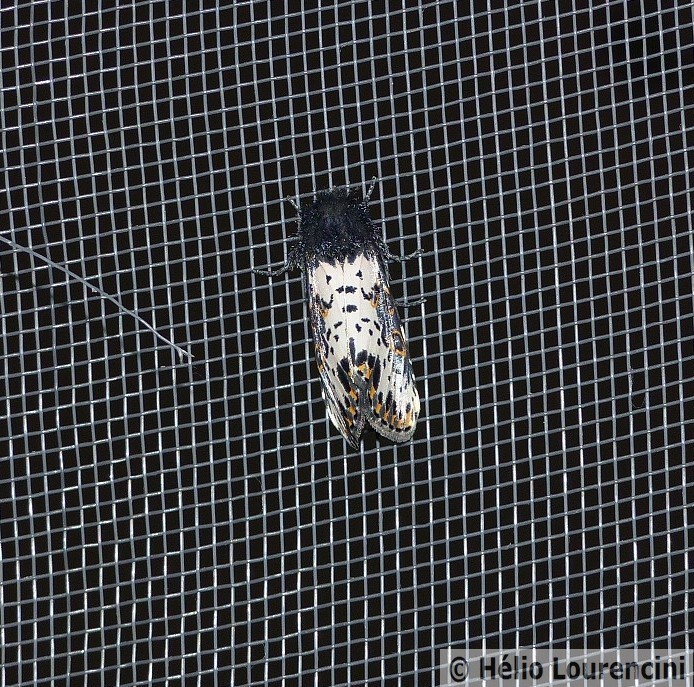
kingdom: Animalia
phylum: Arthropoda
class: Insecta
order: Lepidoptera
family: Noctuidae
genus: Xanthopastis
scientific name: Xanthopastis timais
